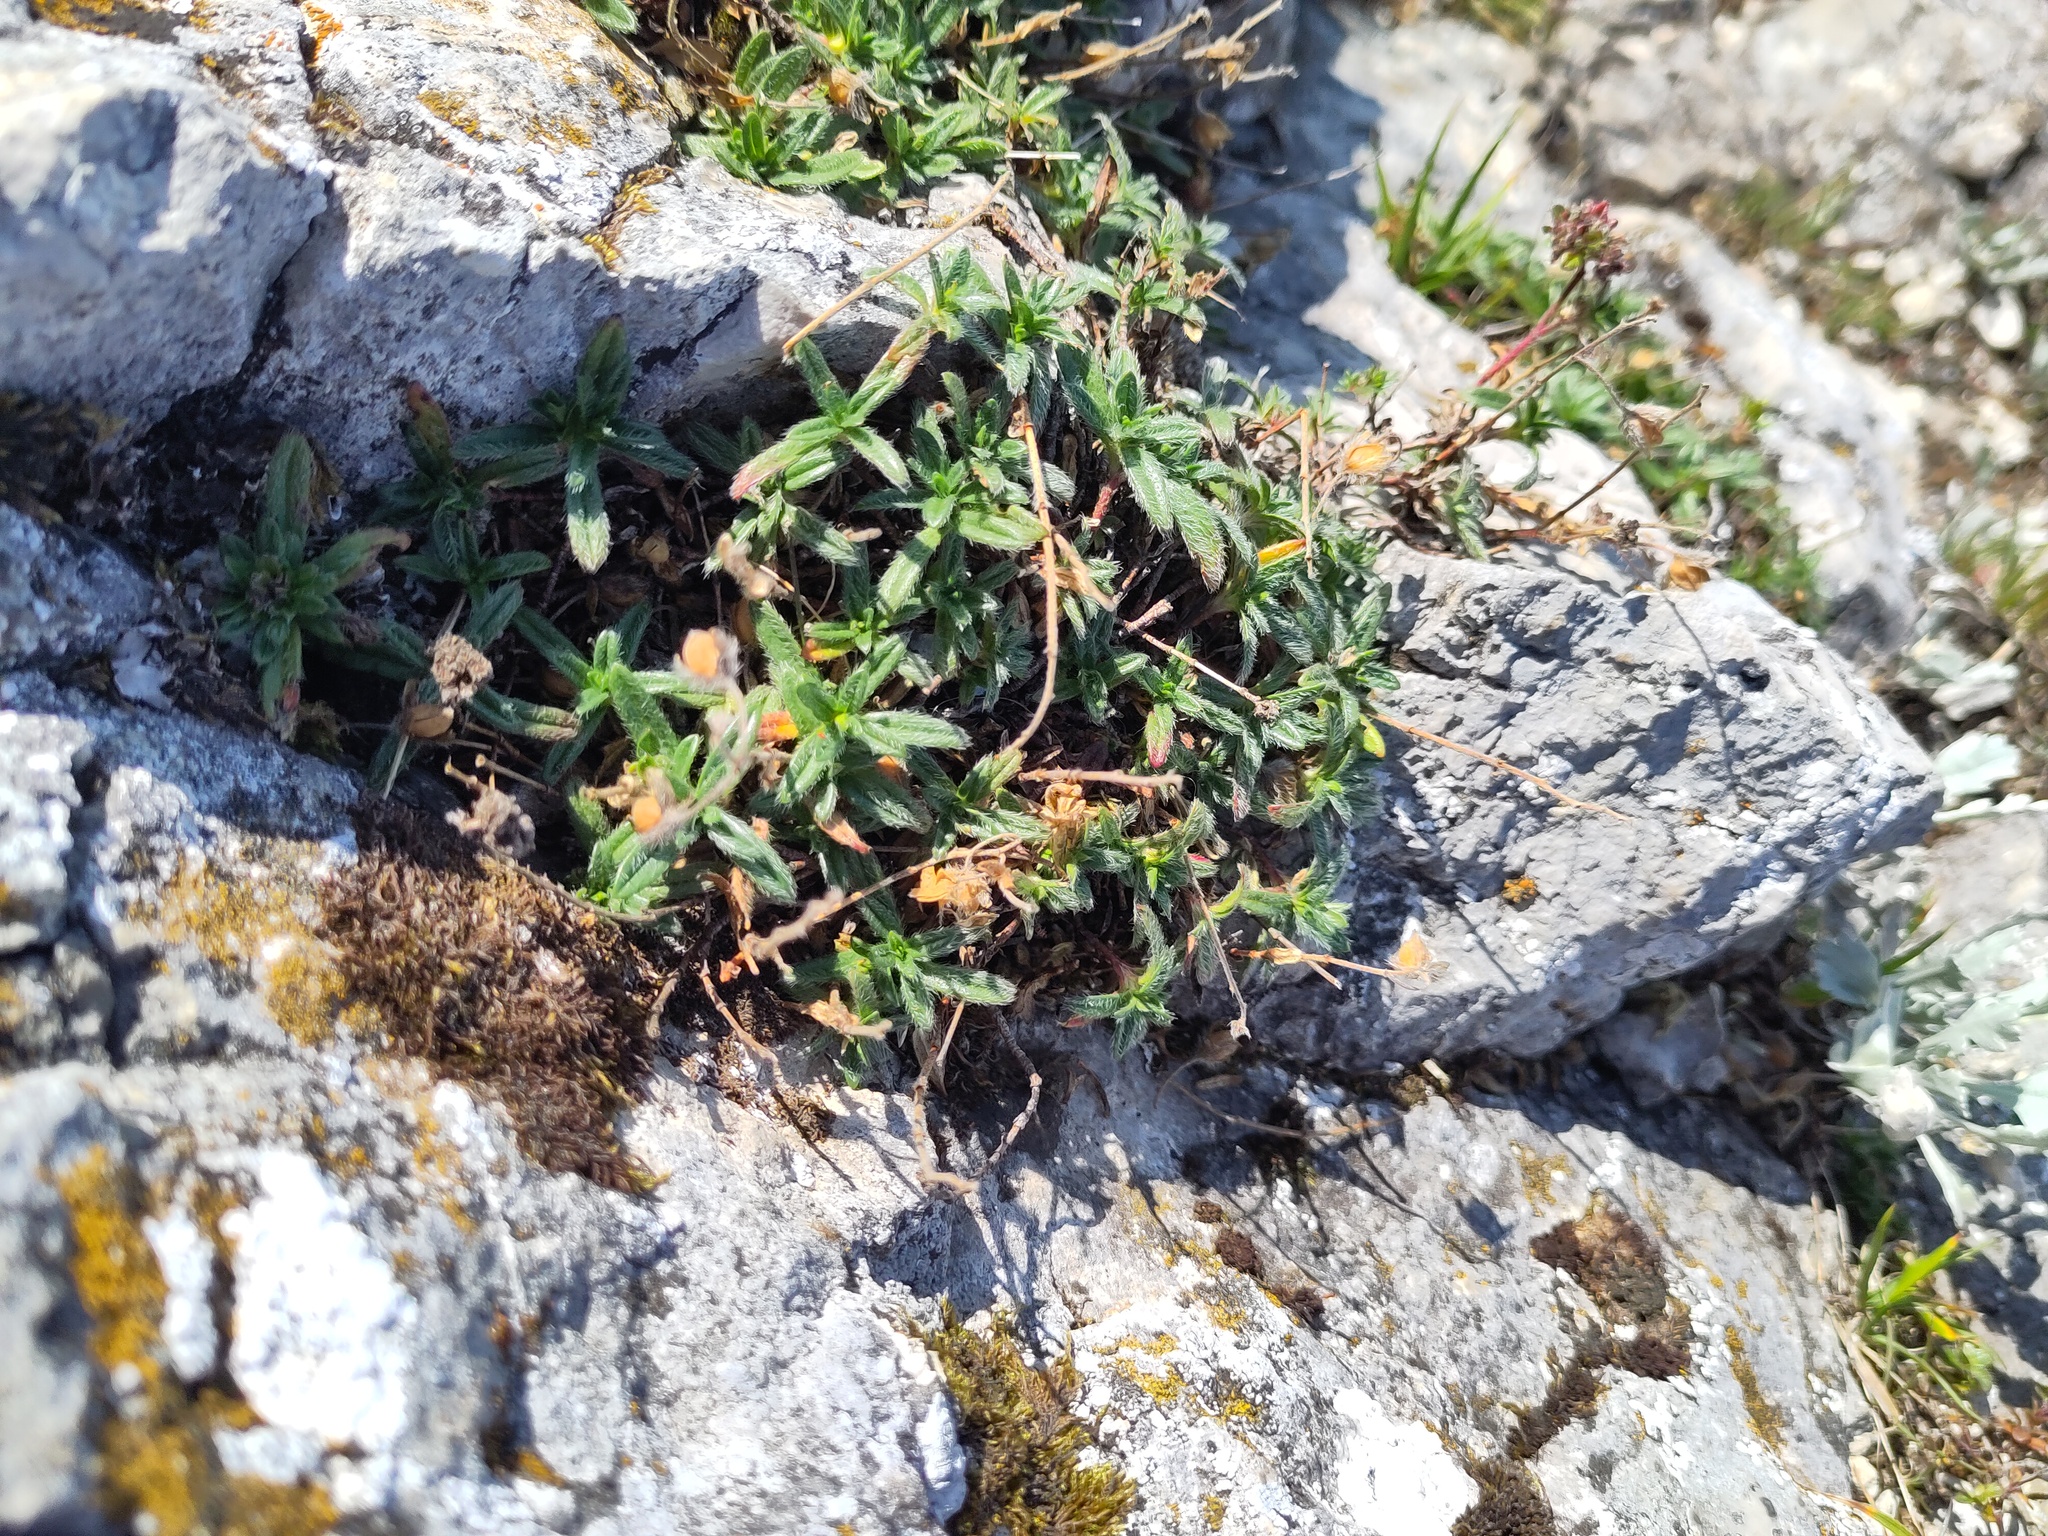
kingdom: Plantae
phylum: Tracheophyta
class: Magnoliopsida
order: Malvales
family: Cistaceae
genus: Helianthemum
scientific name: Helianthemum alpestre
